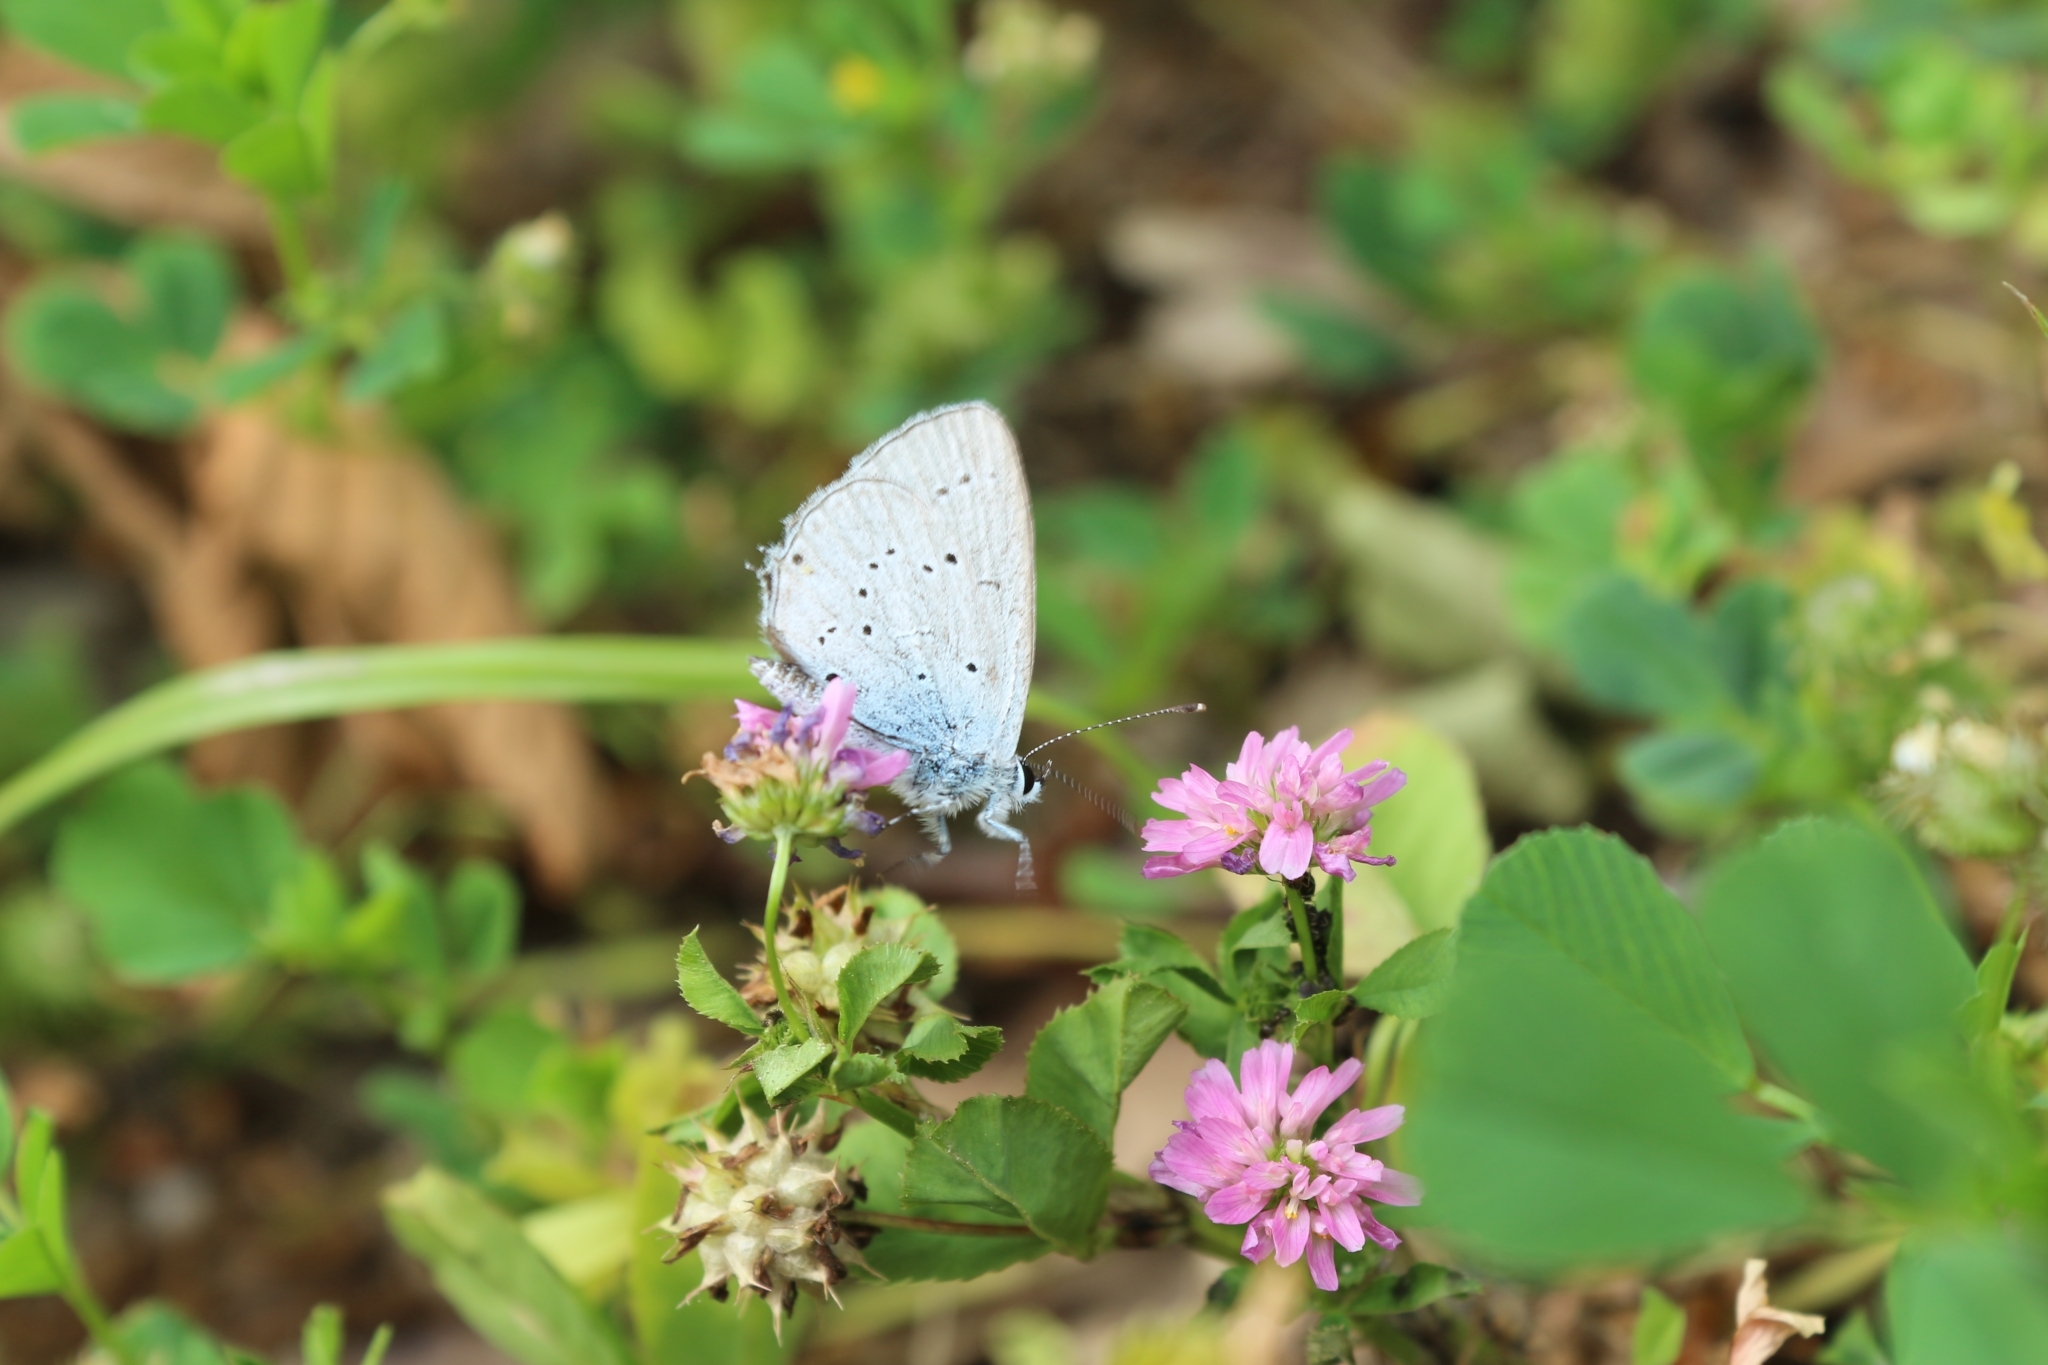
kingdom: Animalia
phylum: Arthropoda
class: Insecta
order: Lepidoptera
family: Lycaenidae
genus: Celastrina
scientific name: Celastrina argiolus
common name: Holly blue
